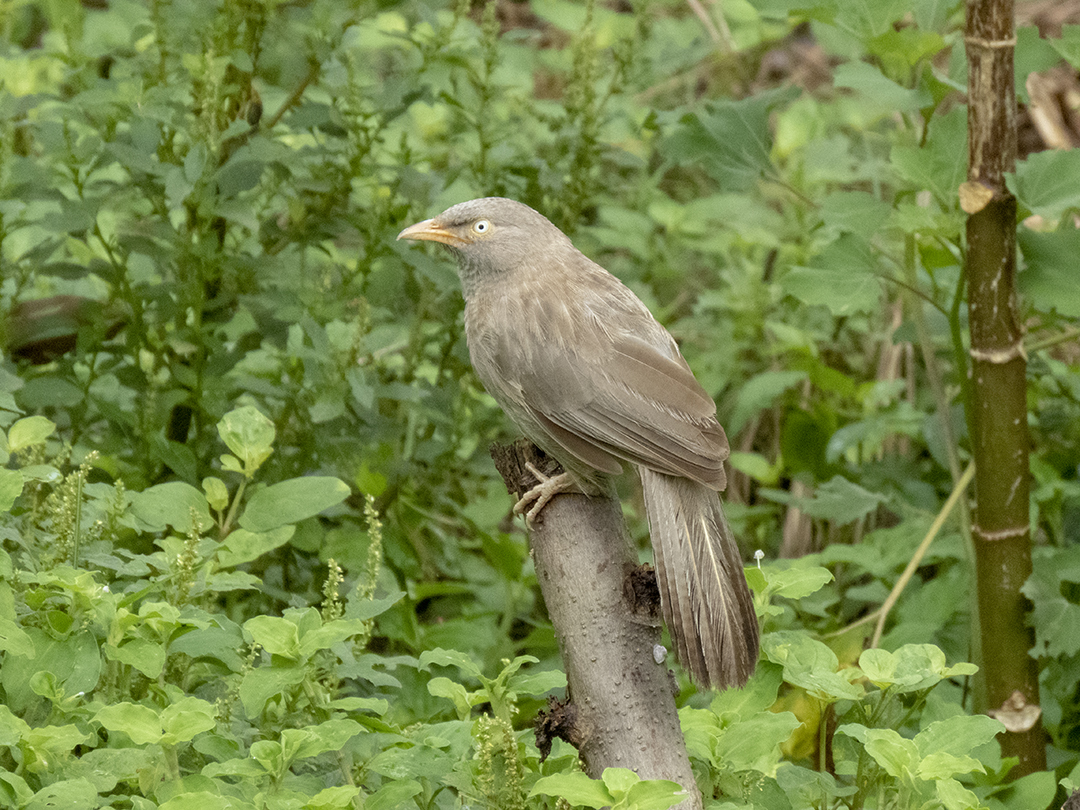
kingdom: Animalia
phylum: Chordata
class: Aves
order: Passeriformes
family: Leiothrichidae
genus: Turdoides
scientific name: Turdoides striata
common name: Jungle babbler
